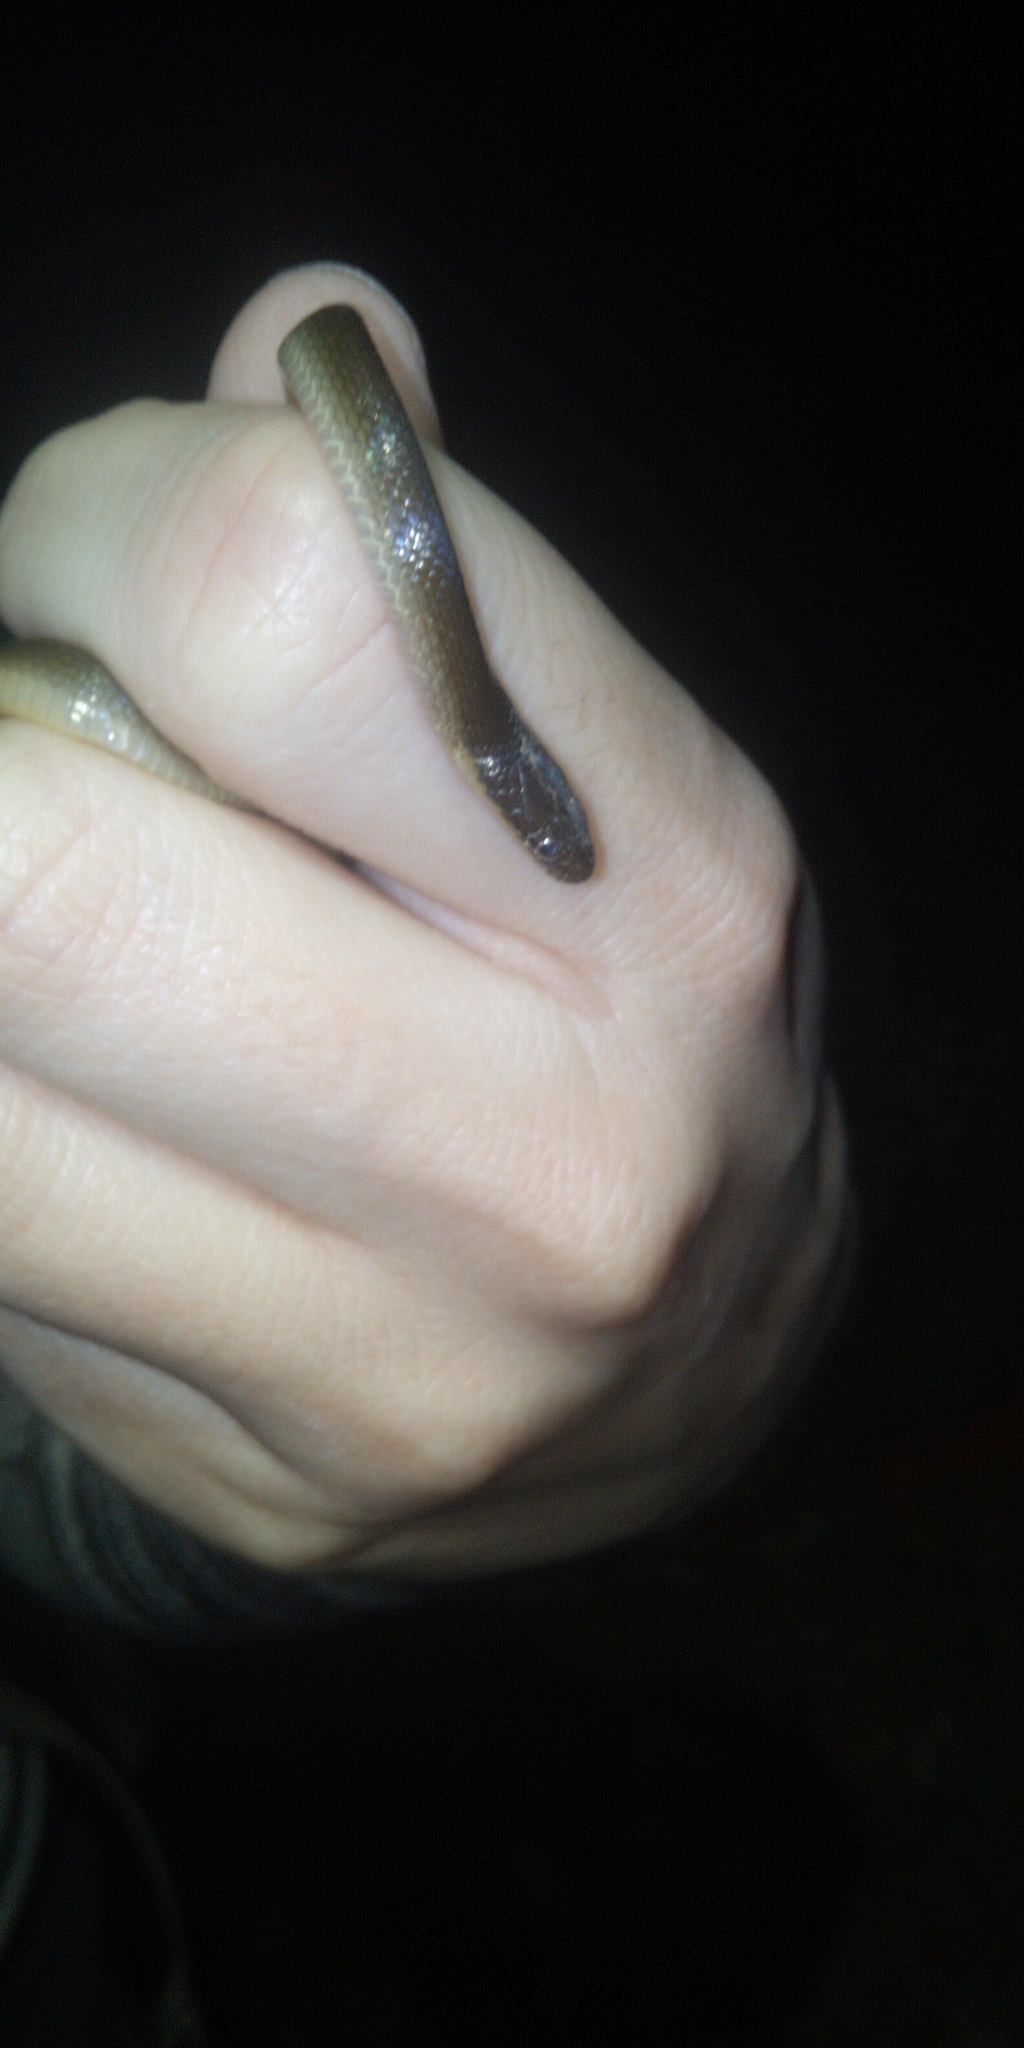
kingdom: Animalia
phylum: Chordata
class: Squamata
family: Lamprophiidae
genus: Lycodonomorphus
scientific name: Lycodonomorphus rufulus
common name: Brown water snake
